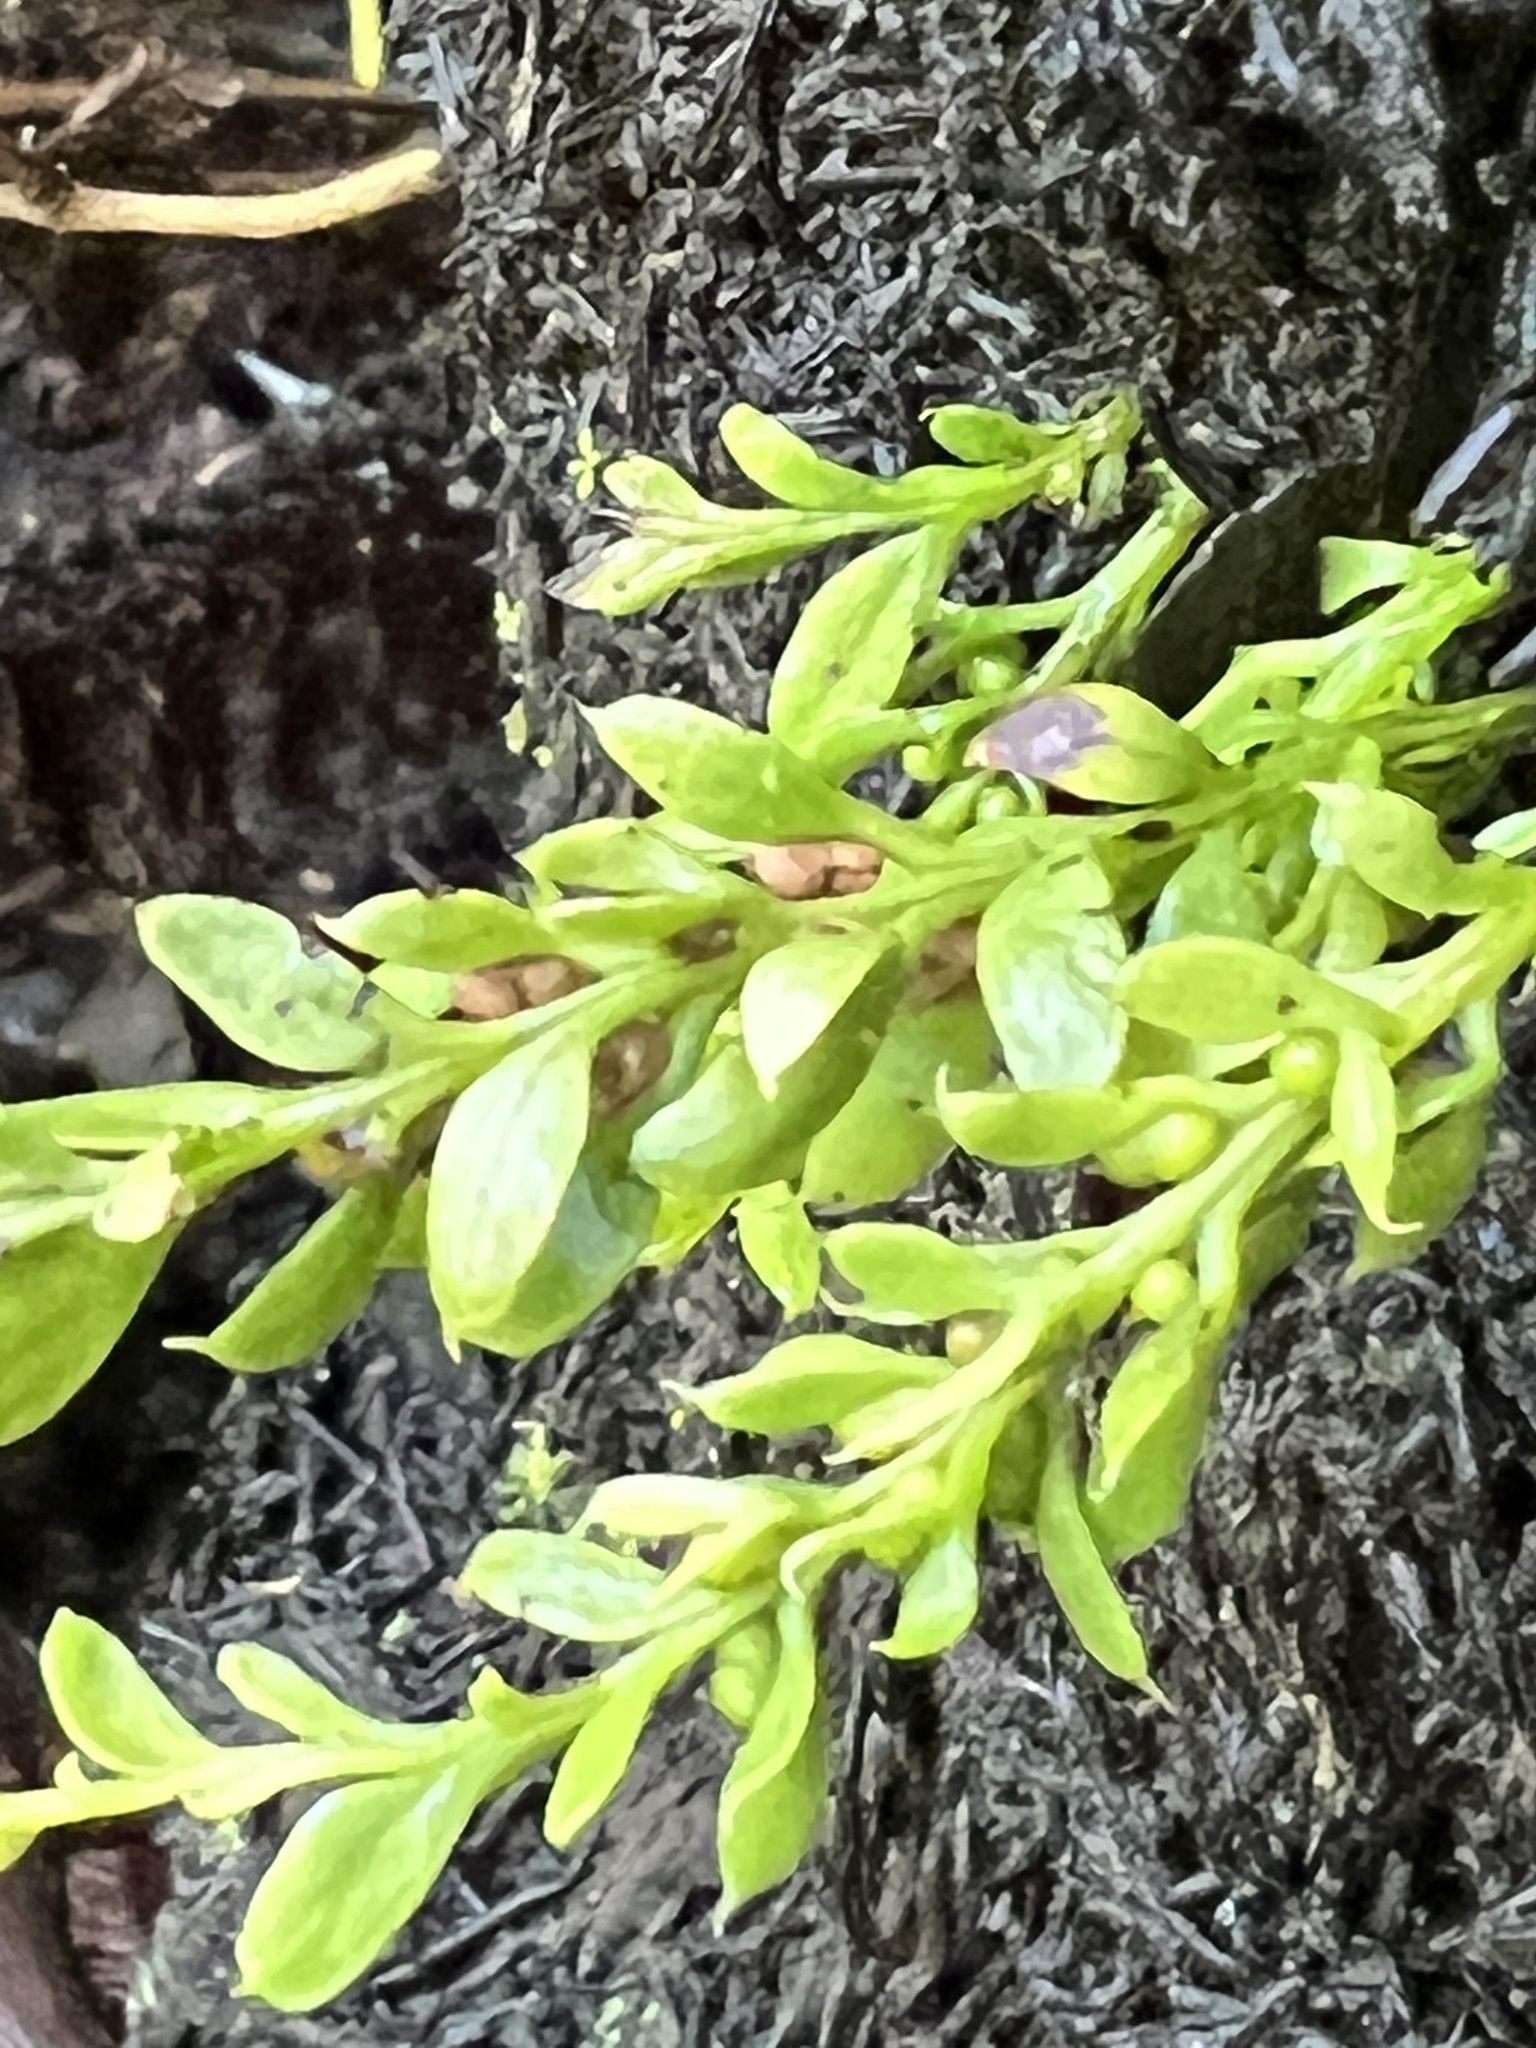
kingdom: Plantae
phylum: Tracheophyta
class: Polypodiopsida
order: Psilotales
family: Psilotaceae
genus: Tmesipteris
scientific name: Tmesipteris lanceolata
